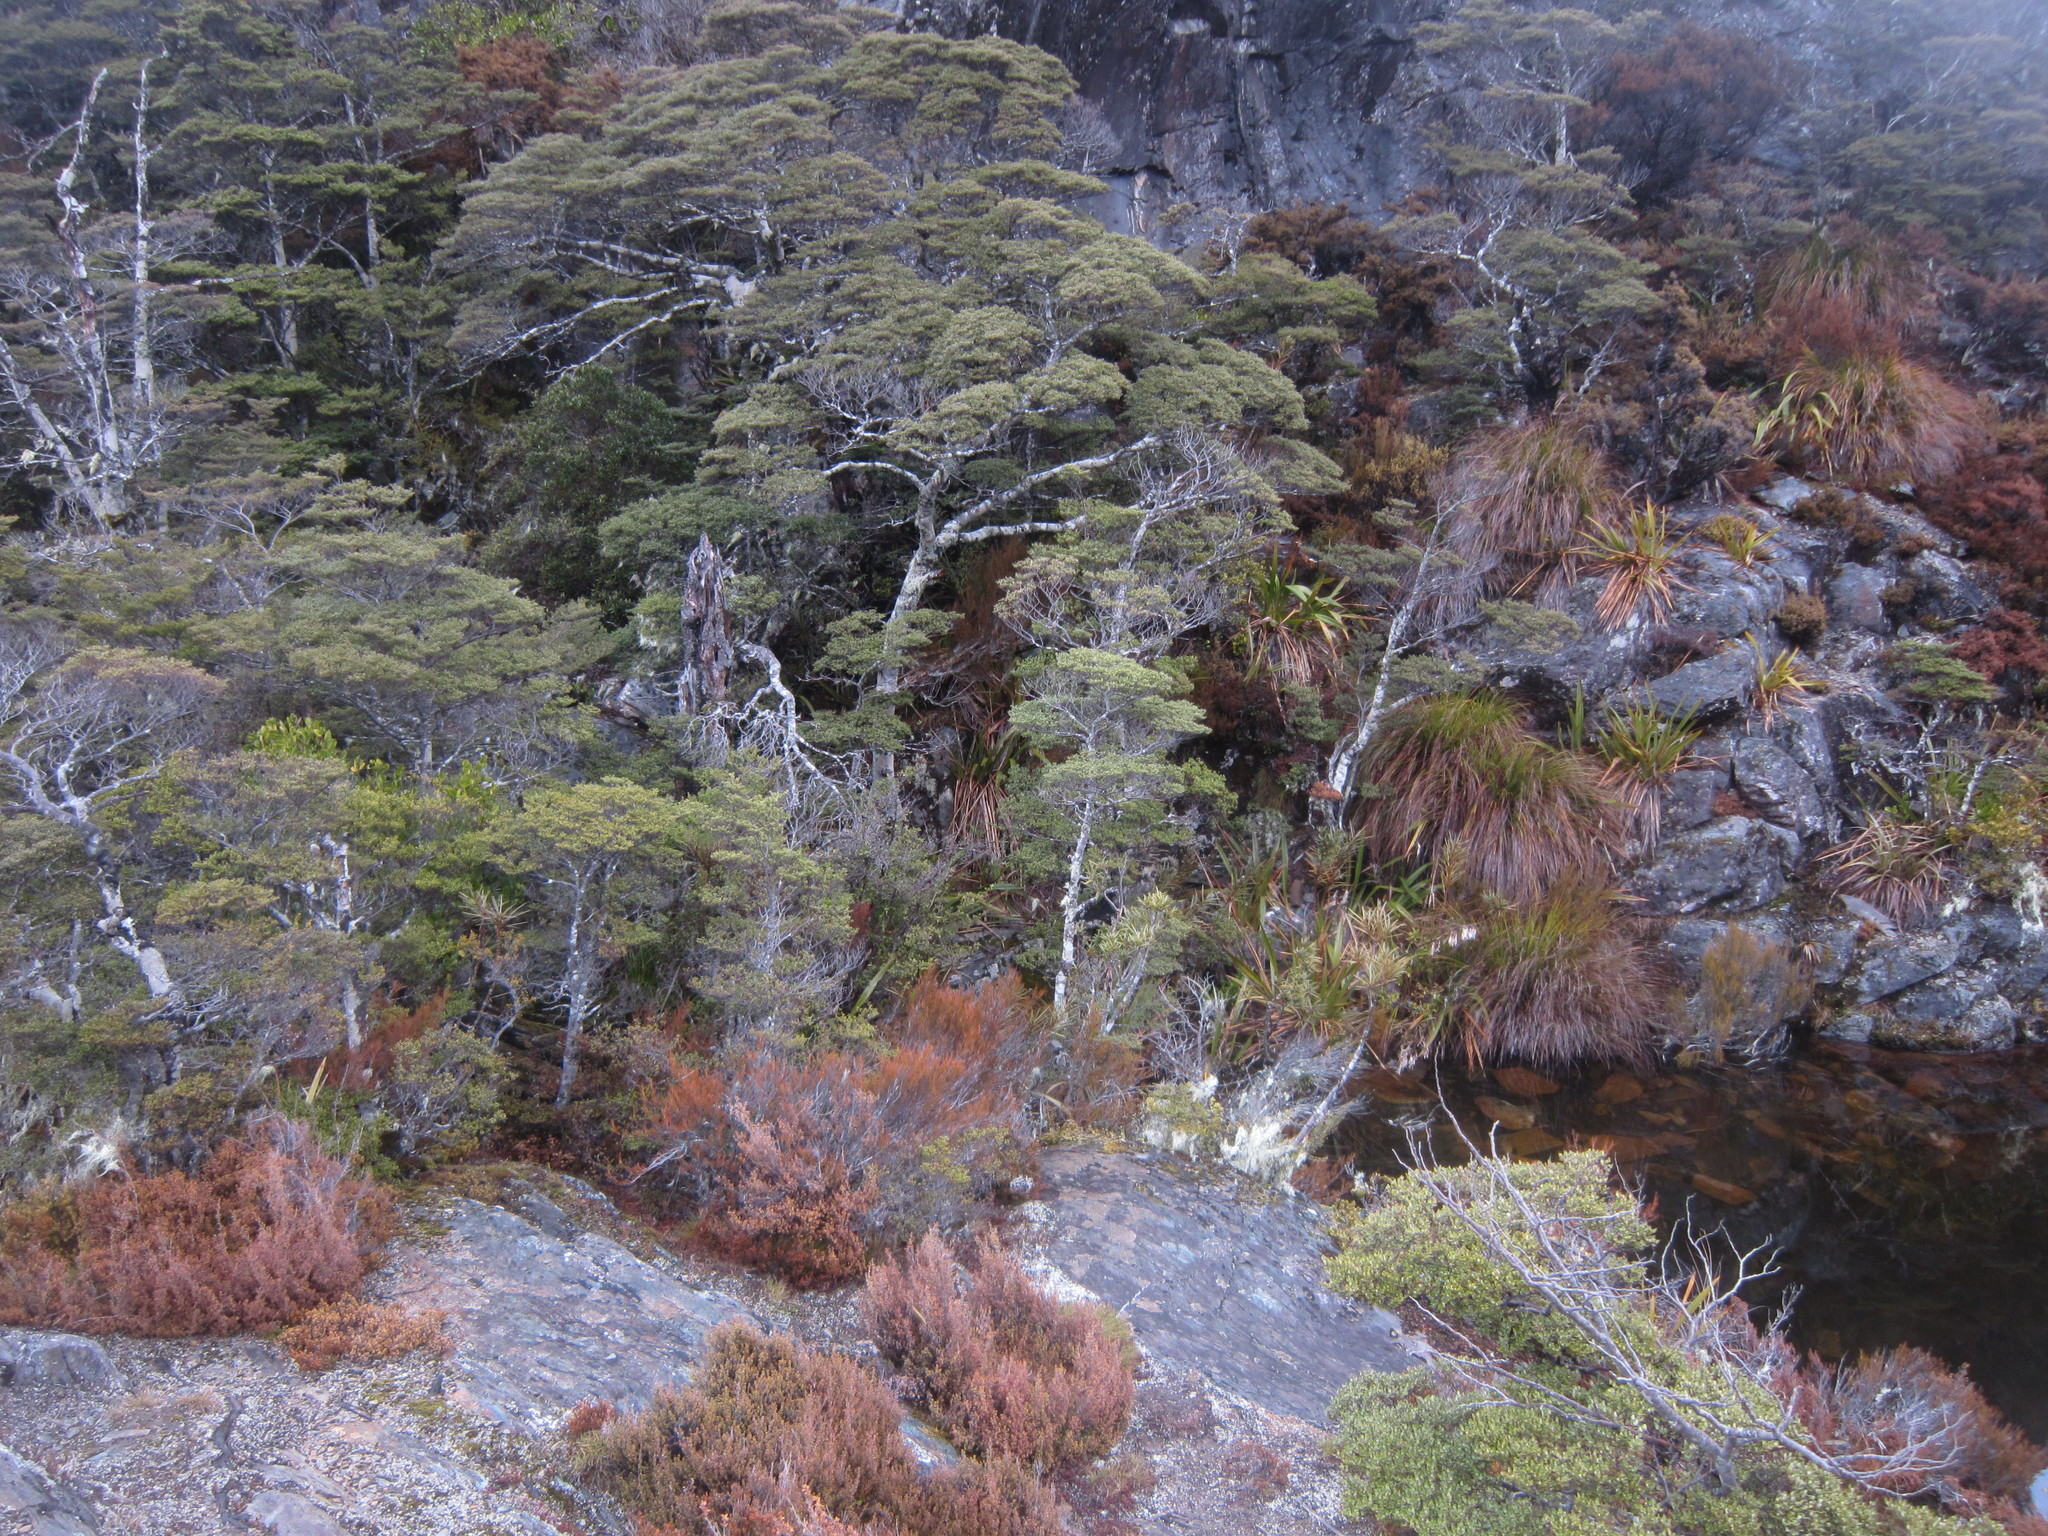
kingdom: Plantae
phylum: Tracheophyta
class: Magnoliopsida
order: Fagales
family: Nothofagaceae
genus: Nothofagus
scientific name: Nothofagus cliffortioides
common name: Mountain beech
